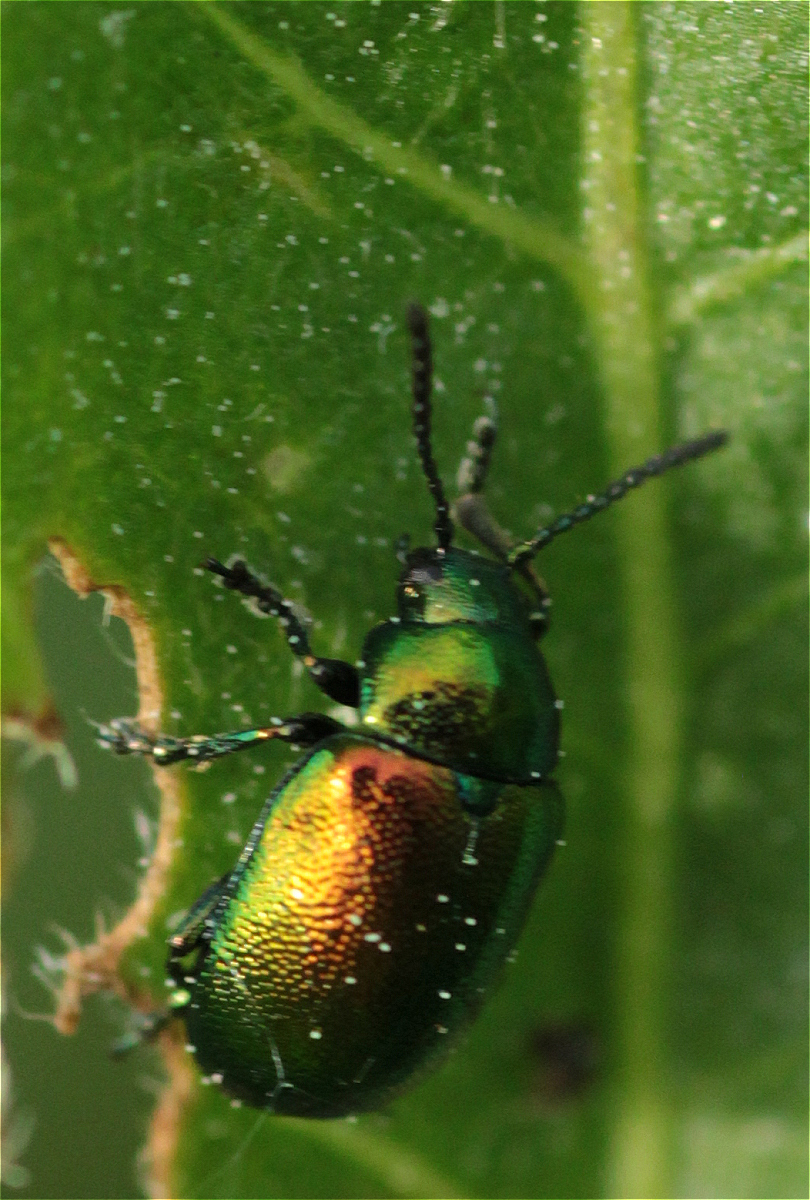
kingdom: Animalia
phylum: Arthropoda
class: Insecta
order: Coleoptera
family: Chrysomelidae
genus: Gastrophysa
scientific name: Gastrophysa viridula
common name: Green dock beetle
